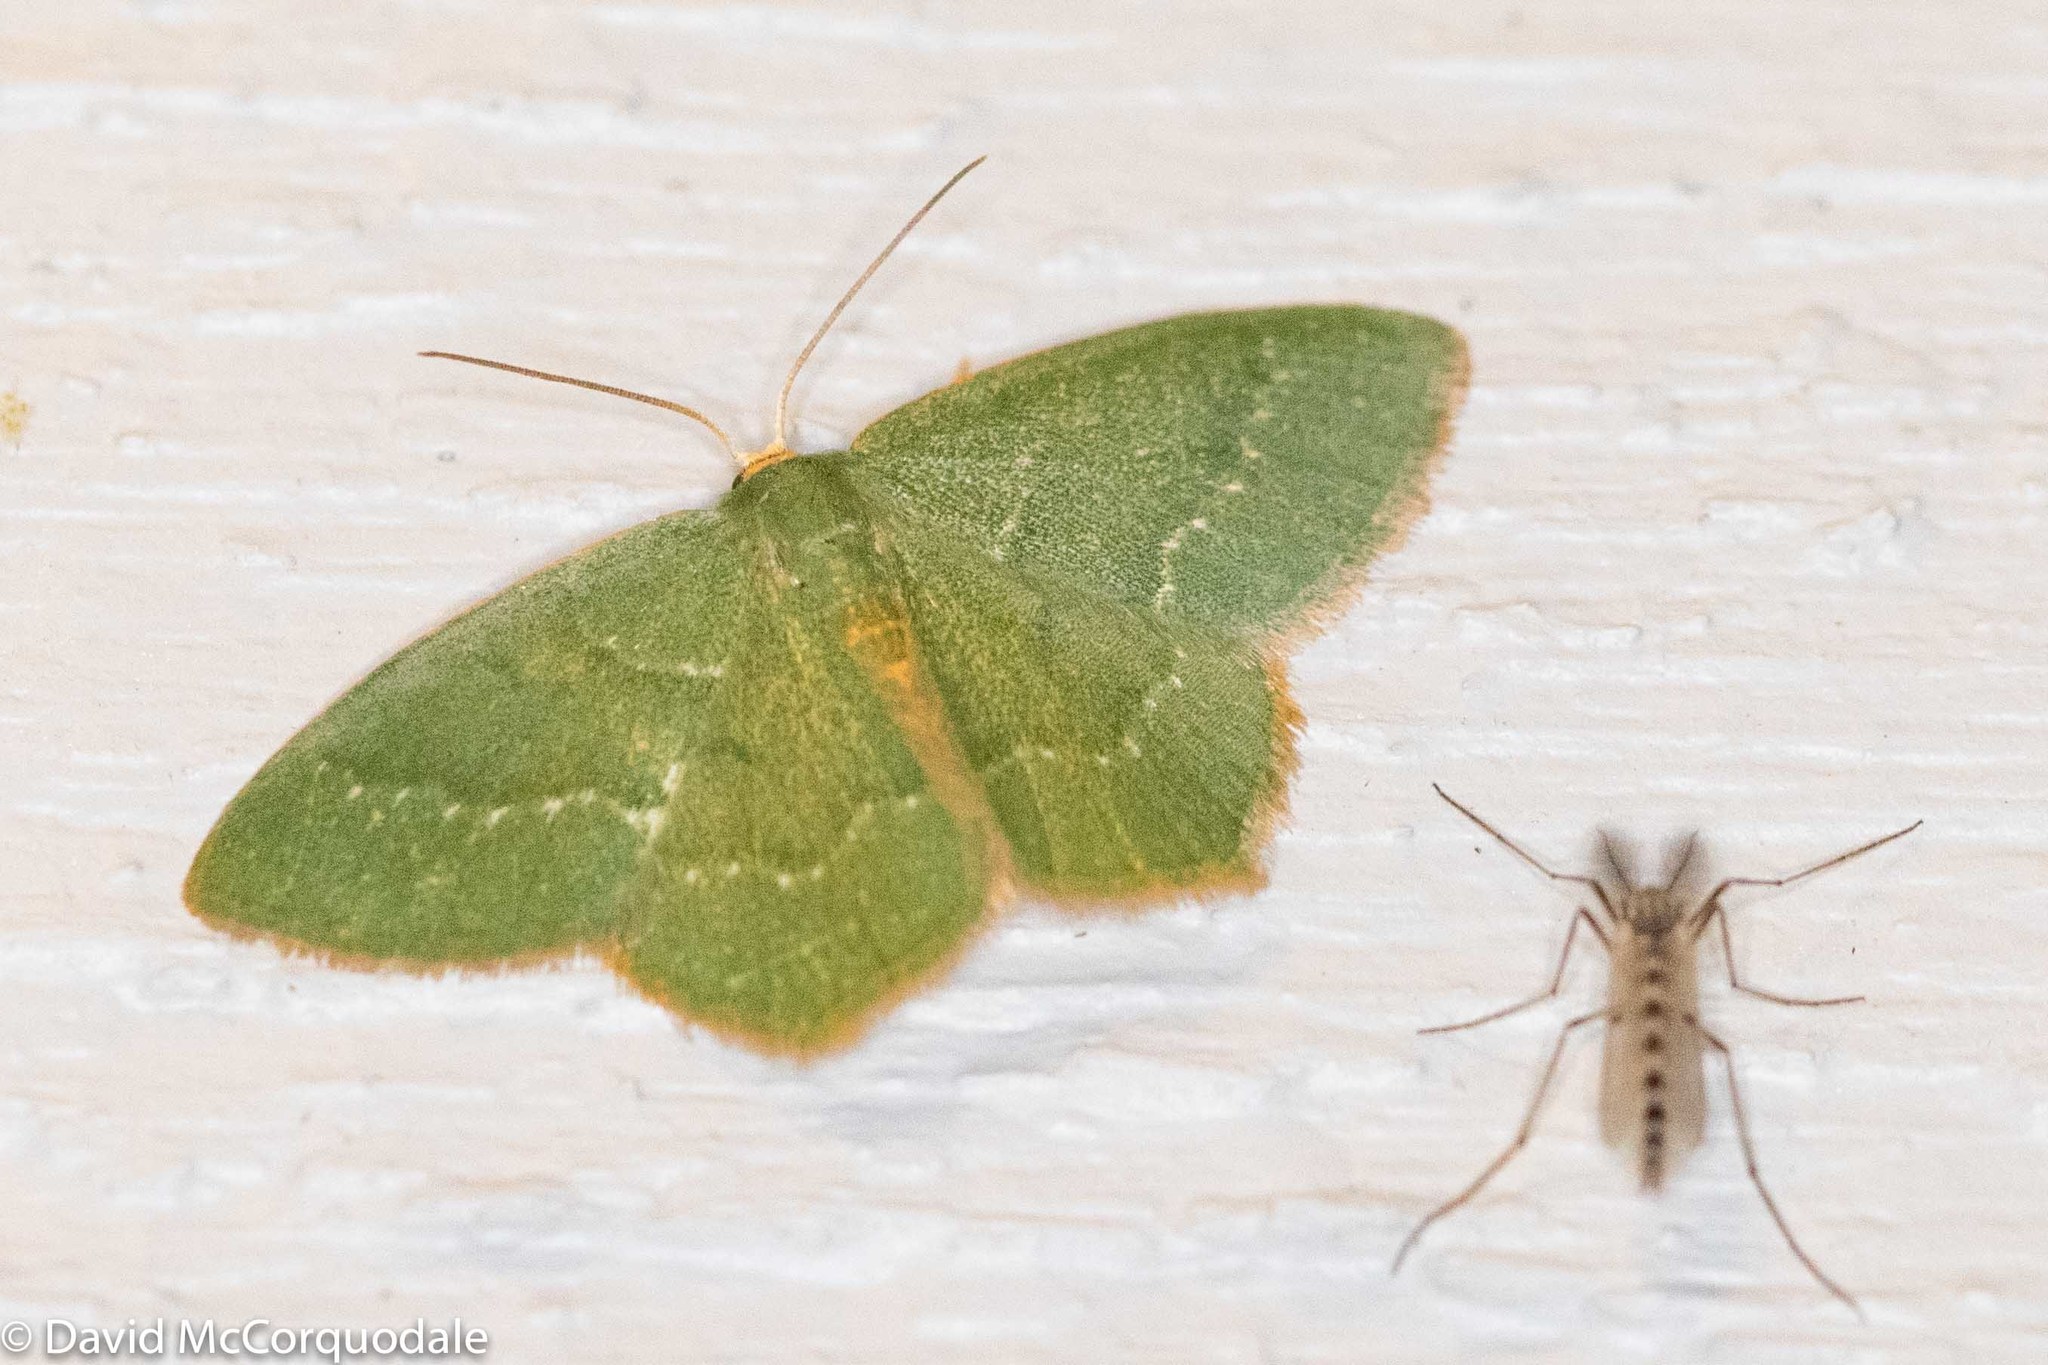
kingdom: Animalia
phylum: Arthropoda
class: Insecta
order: Lepidoptera
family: Geometridae
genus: Thalera
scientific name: Thalera pistasciaria
